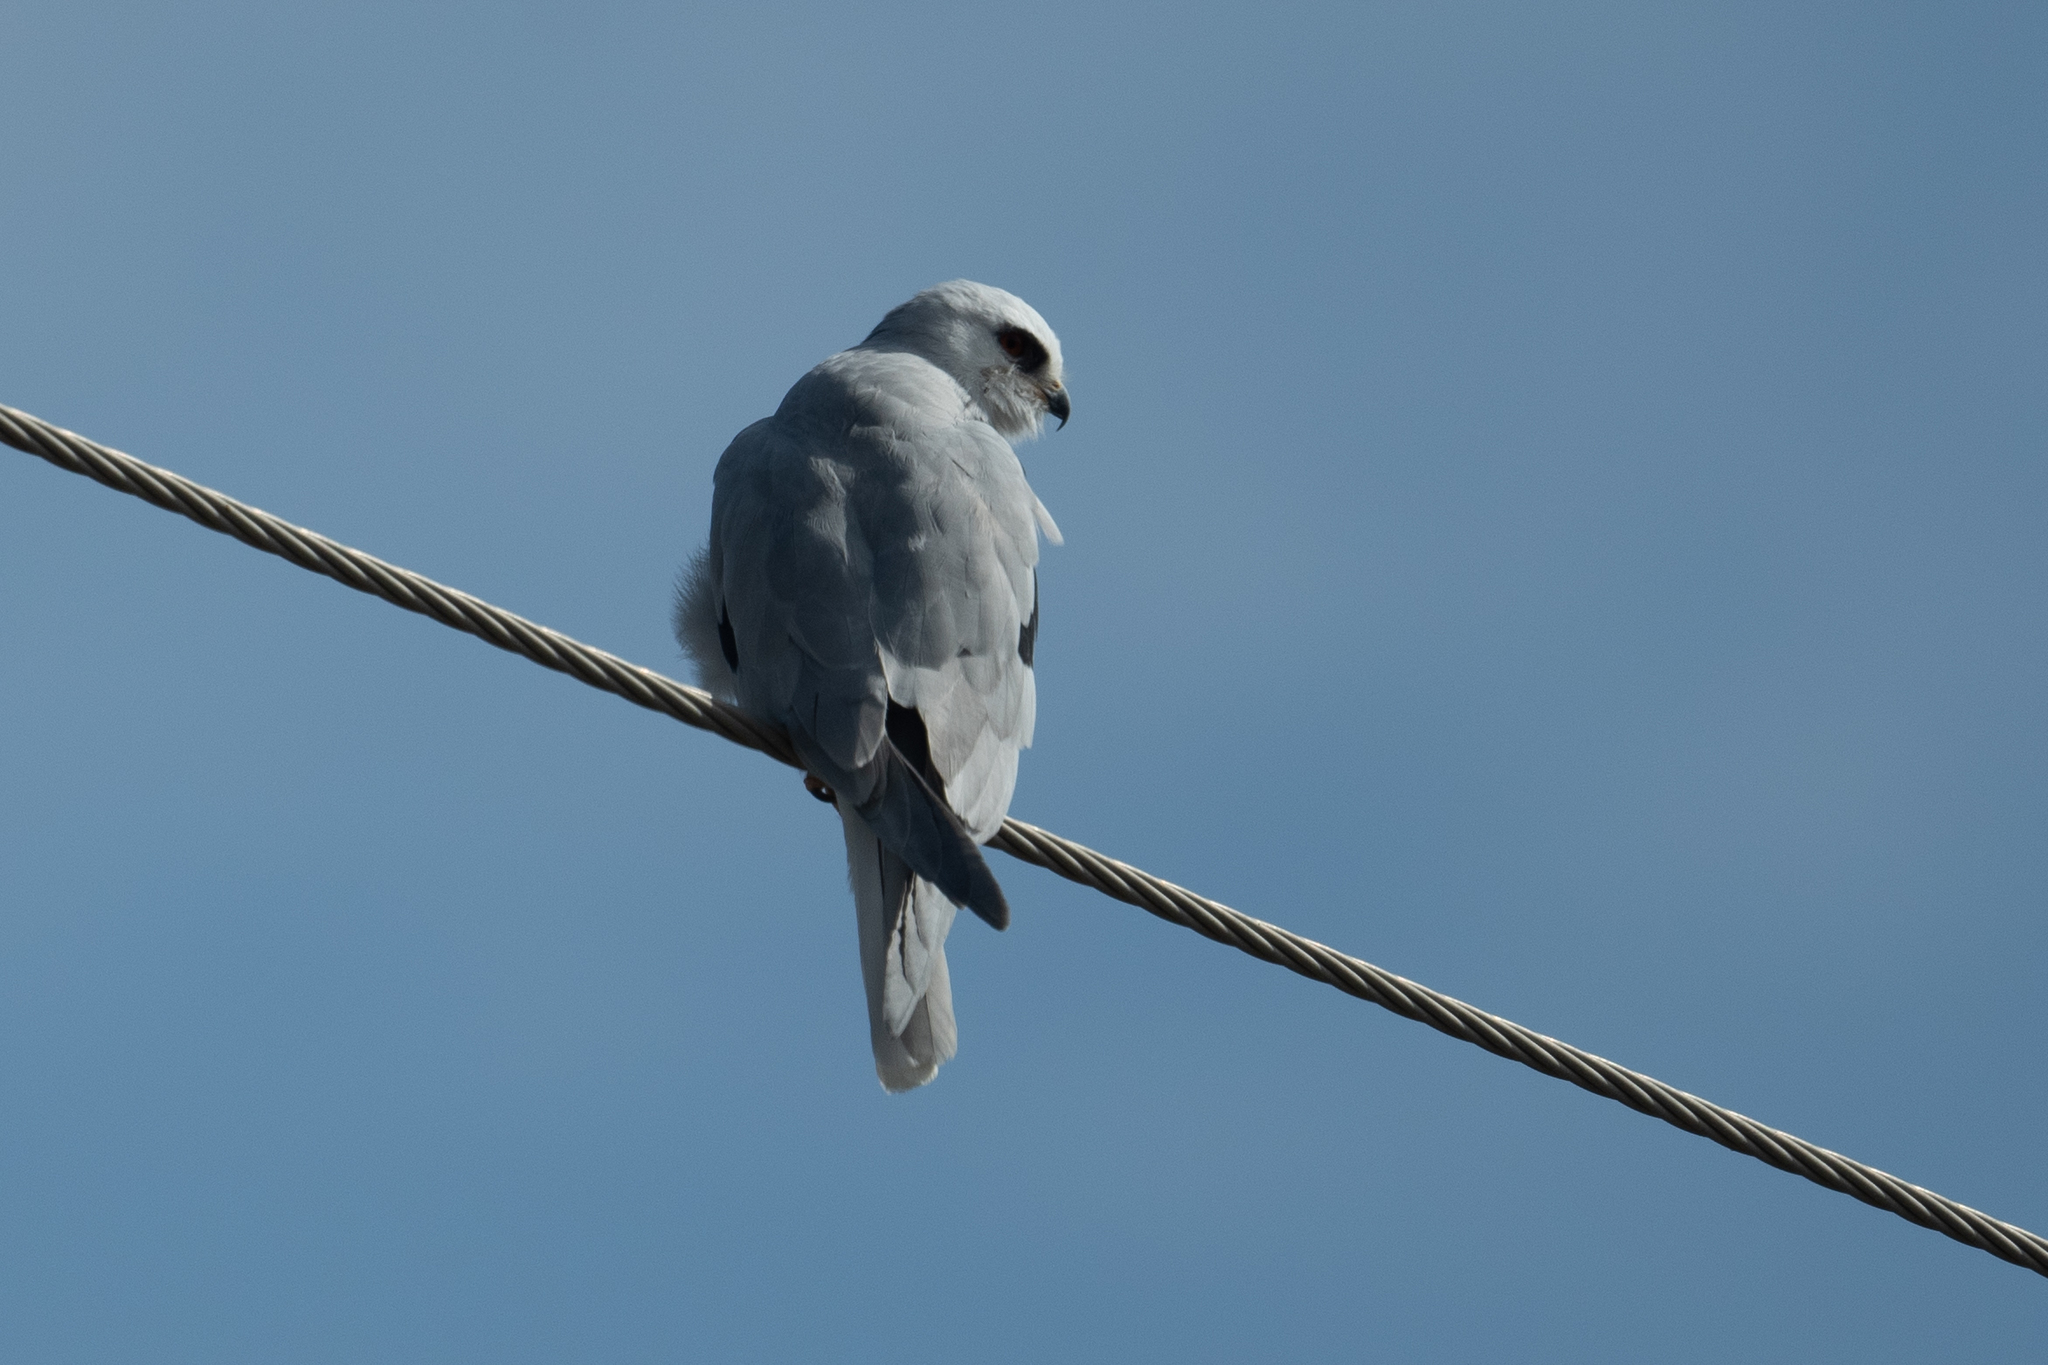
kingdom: Animalia
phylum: Chordata
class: Aves
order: Accipitriformes
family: Accipitridae
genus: Elanus
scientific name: Elanus leucurus
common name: White-tailed kite
